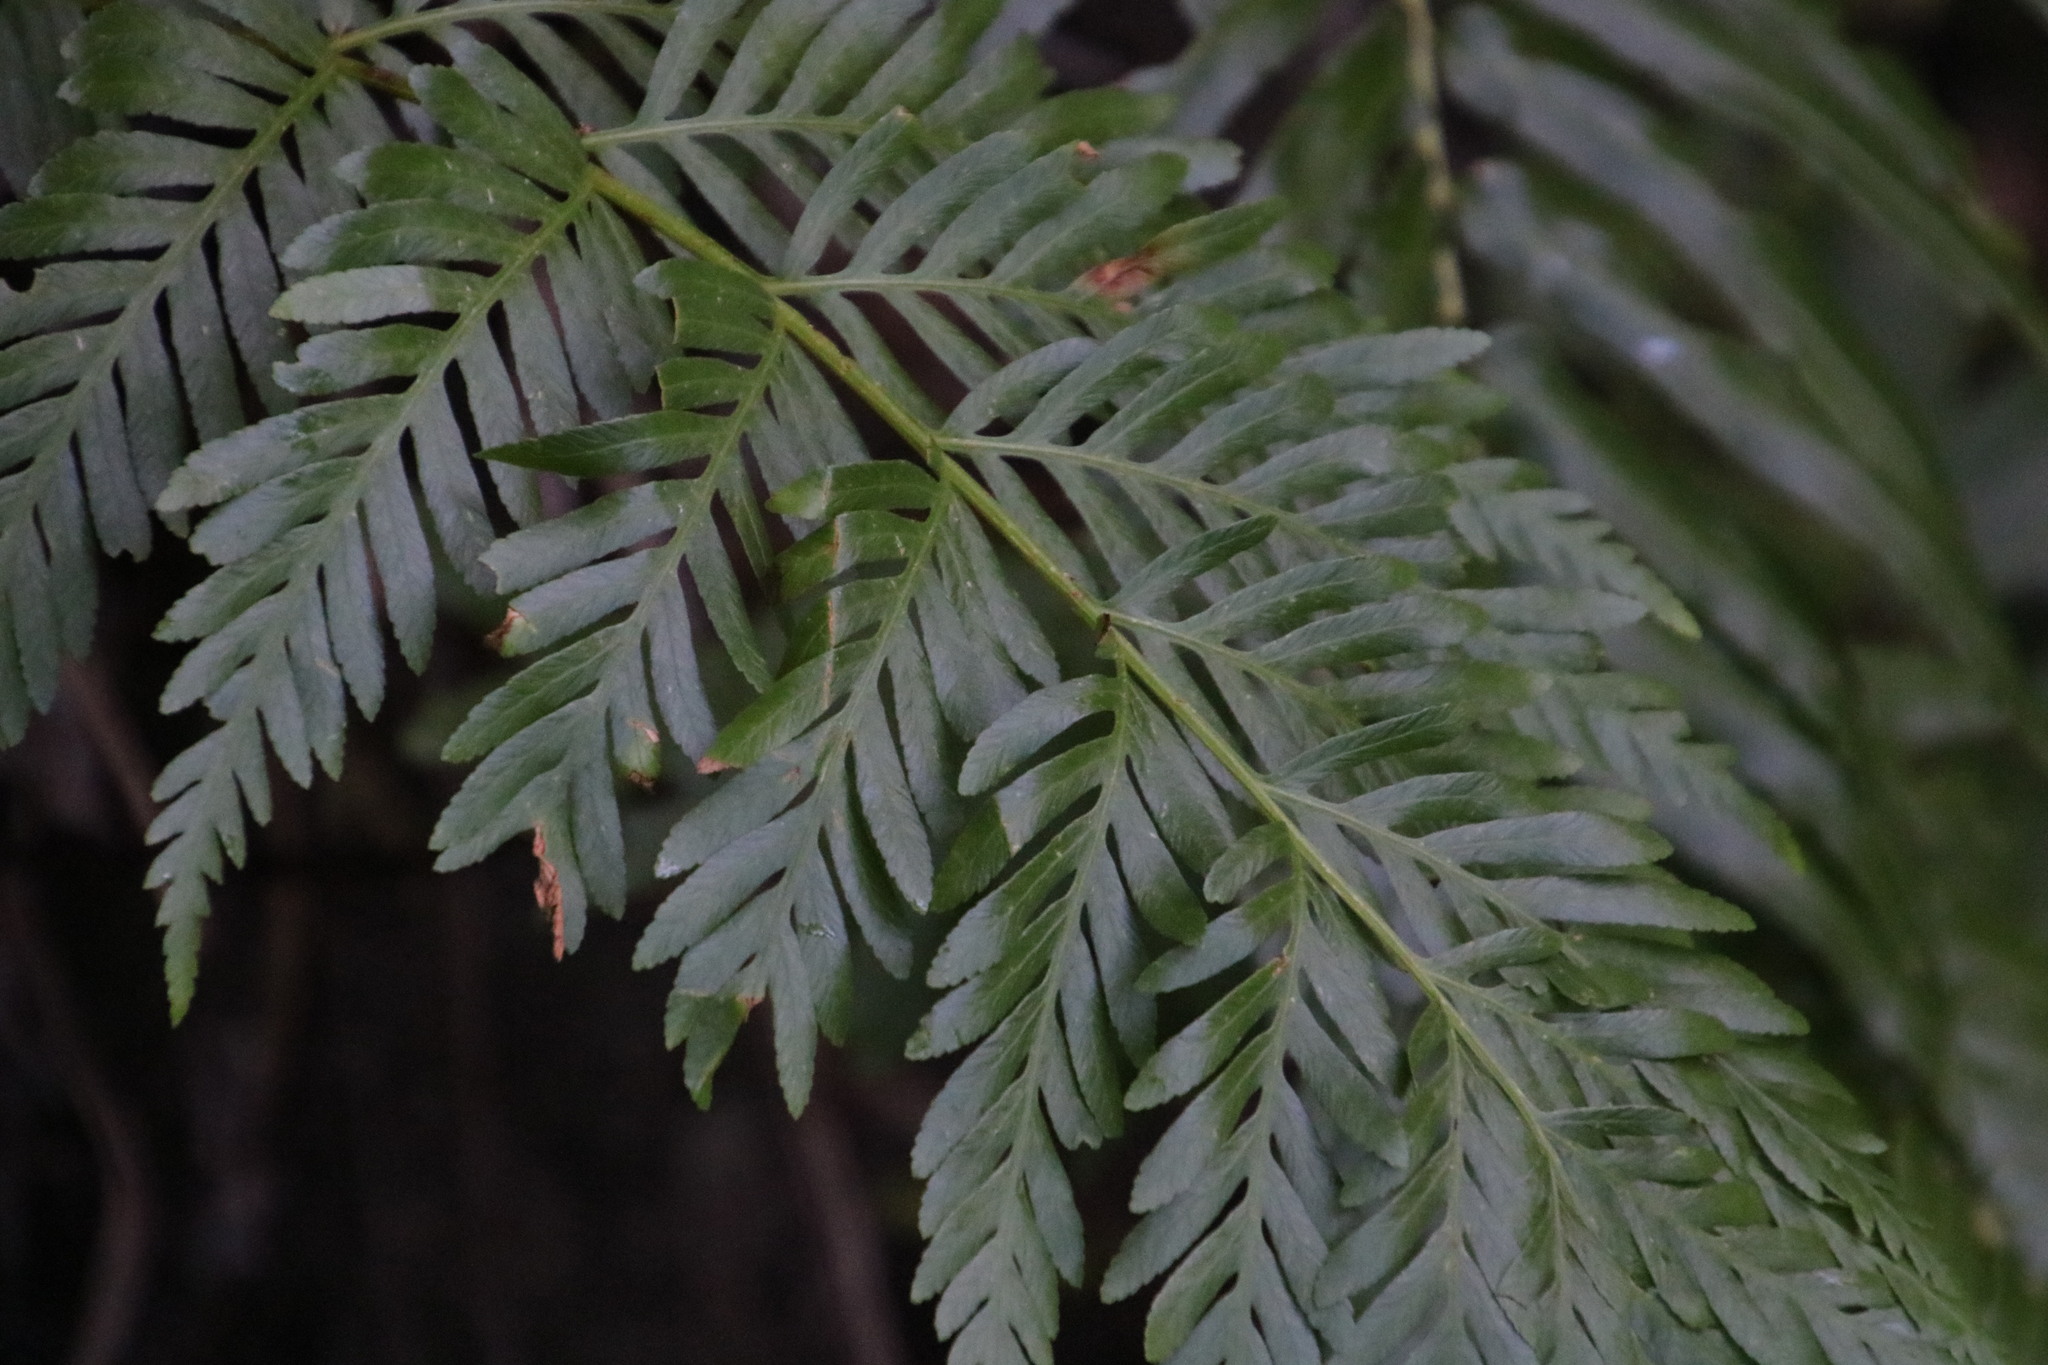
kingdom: Plantae
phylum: Tracheophyta
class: Polypodiopsida
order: Osmundales
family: Osmundaceae
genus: Todea
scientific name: Todea barbara
